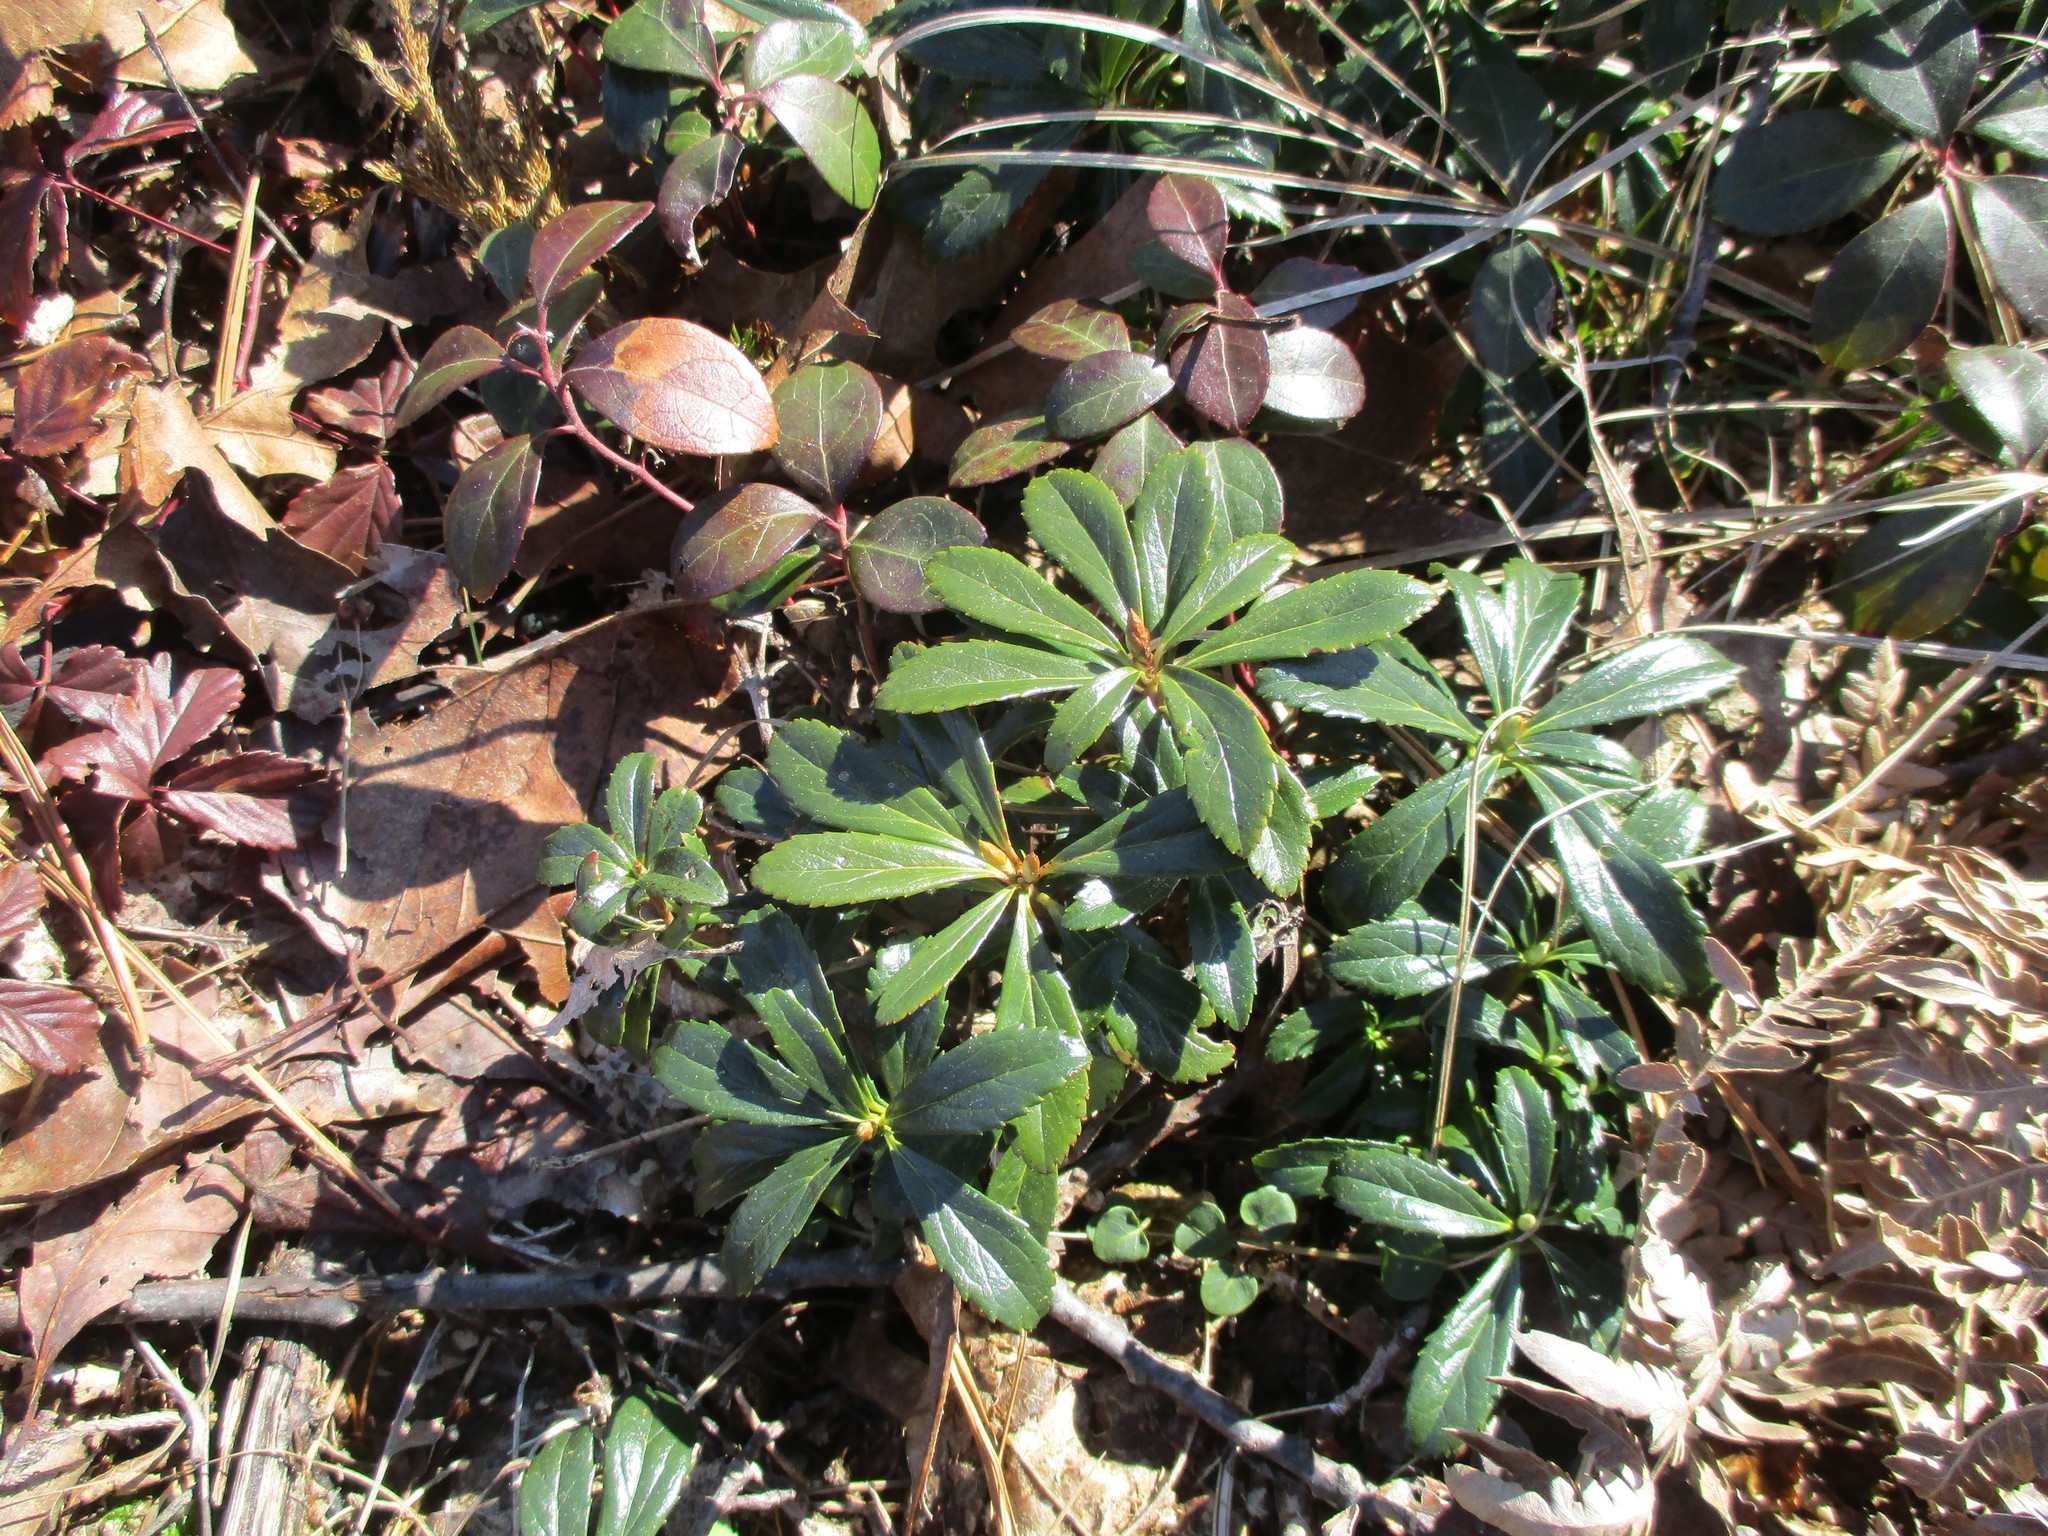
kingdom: Plantae
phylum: Tracheophyta
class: Magnoliopsida
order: Ericales
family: Ericaceae
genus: Chimaphila
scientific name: Chimaphila umbellata
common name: Pipsissewa
